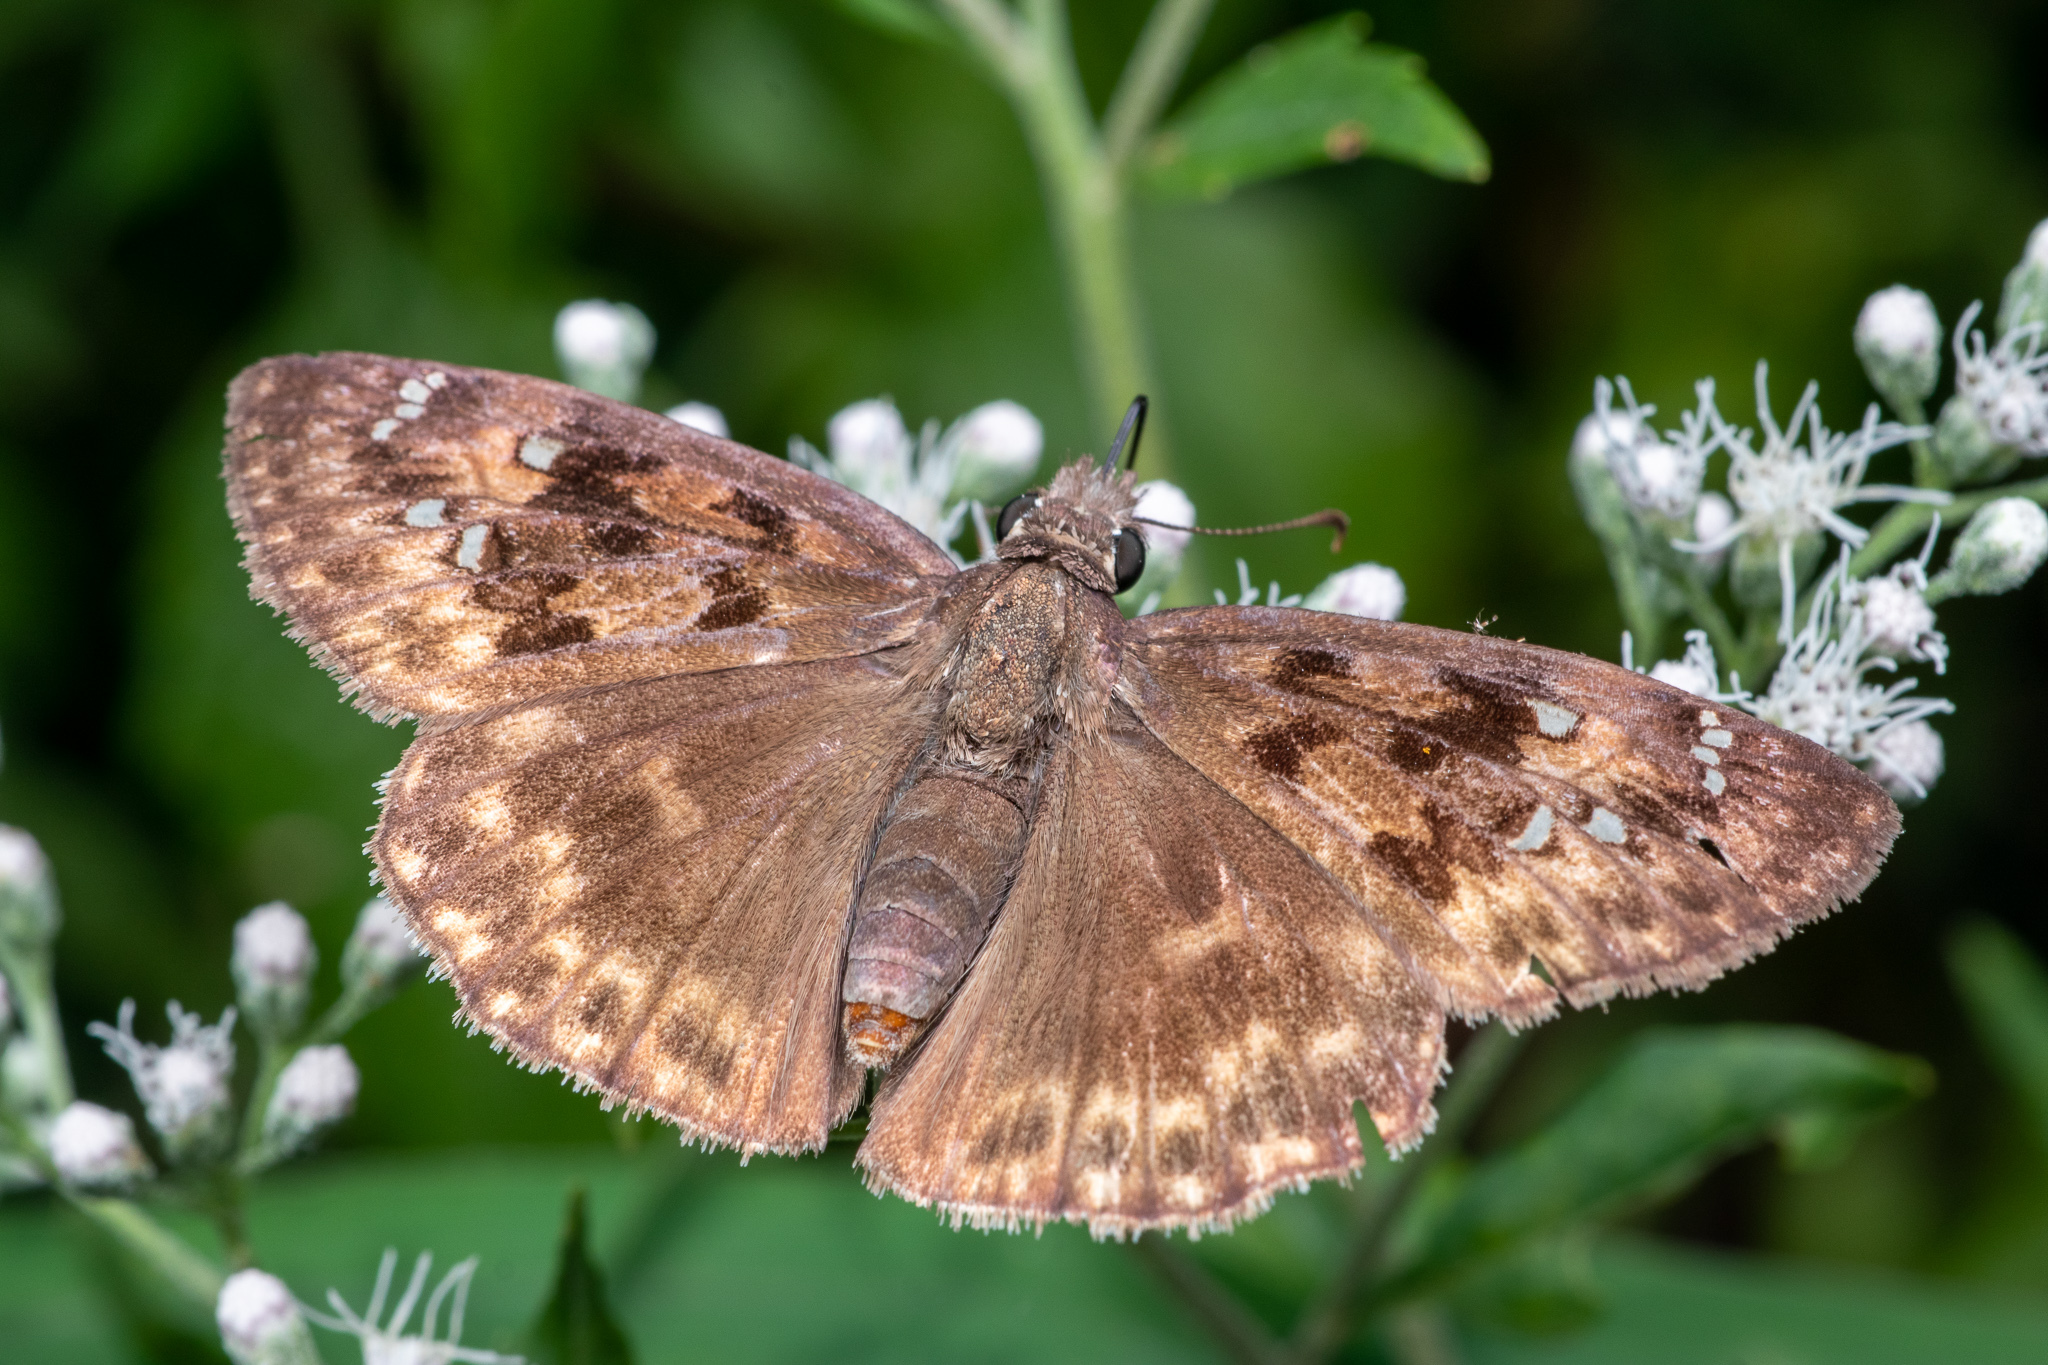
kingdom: Animalia
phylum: Arthropoda
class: Insecta
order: Lepidoptera
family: Hesperiidae
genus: Erynnis
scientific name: Erynnis horatius
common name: Horace's duskywing
